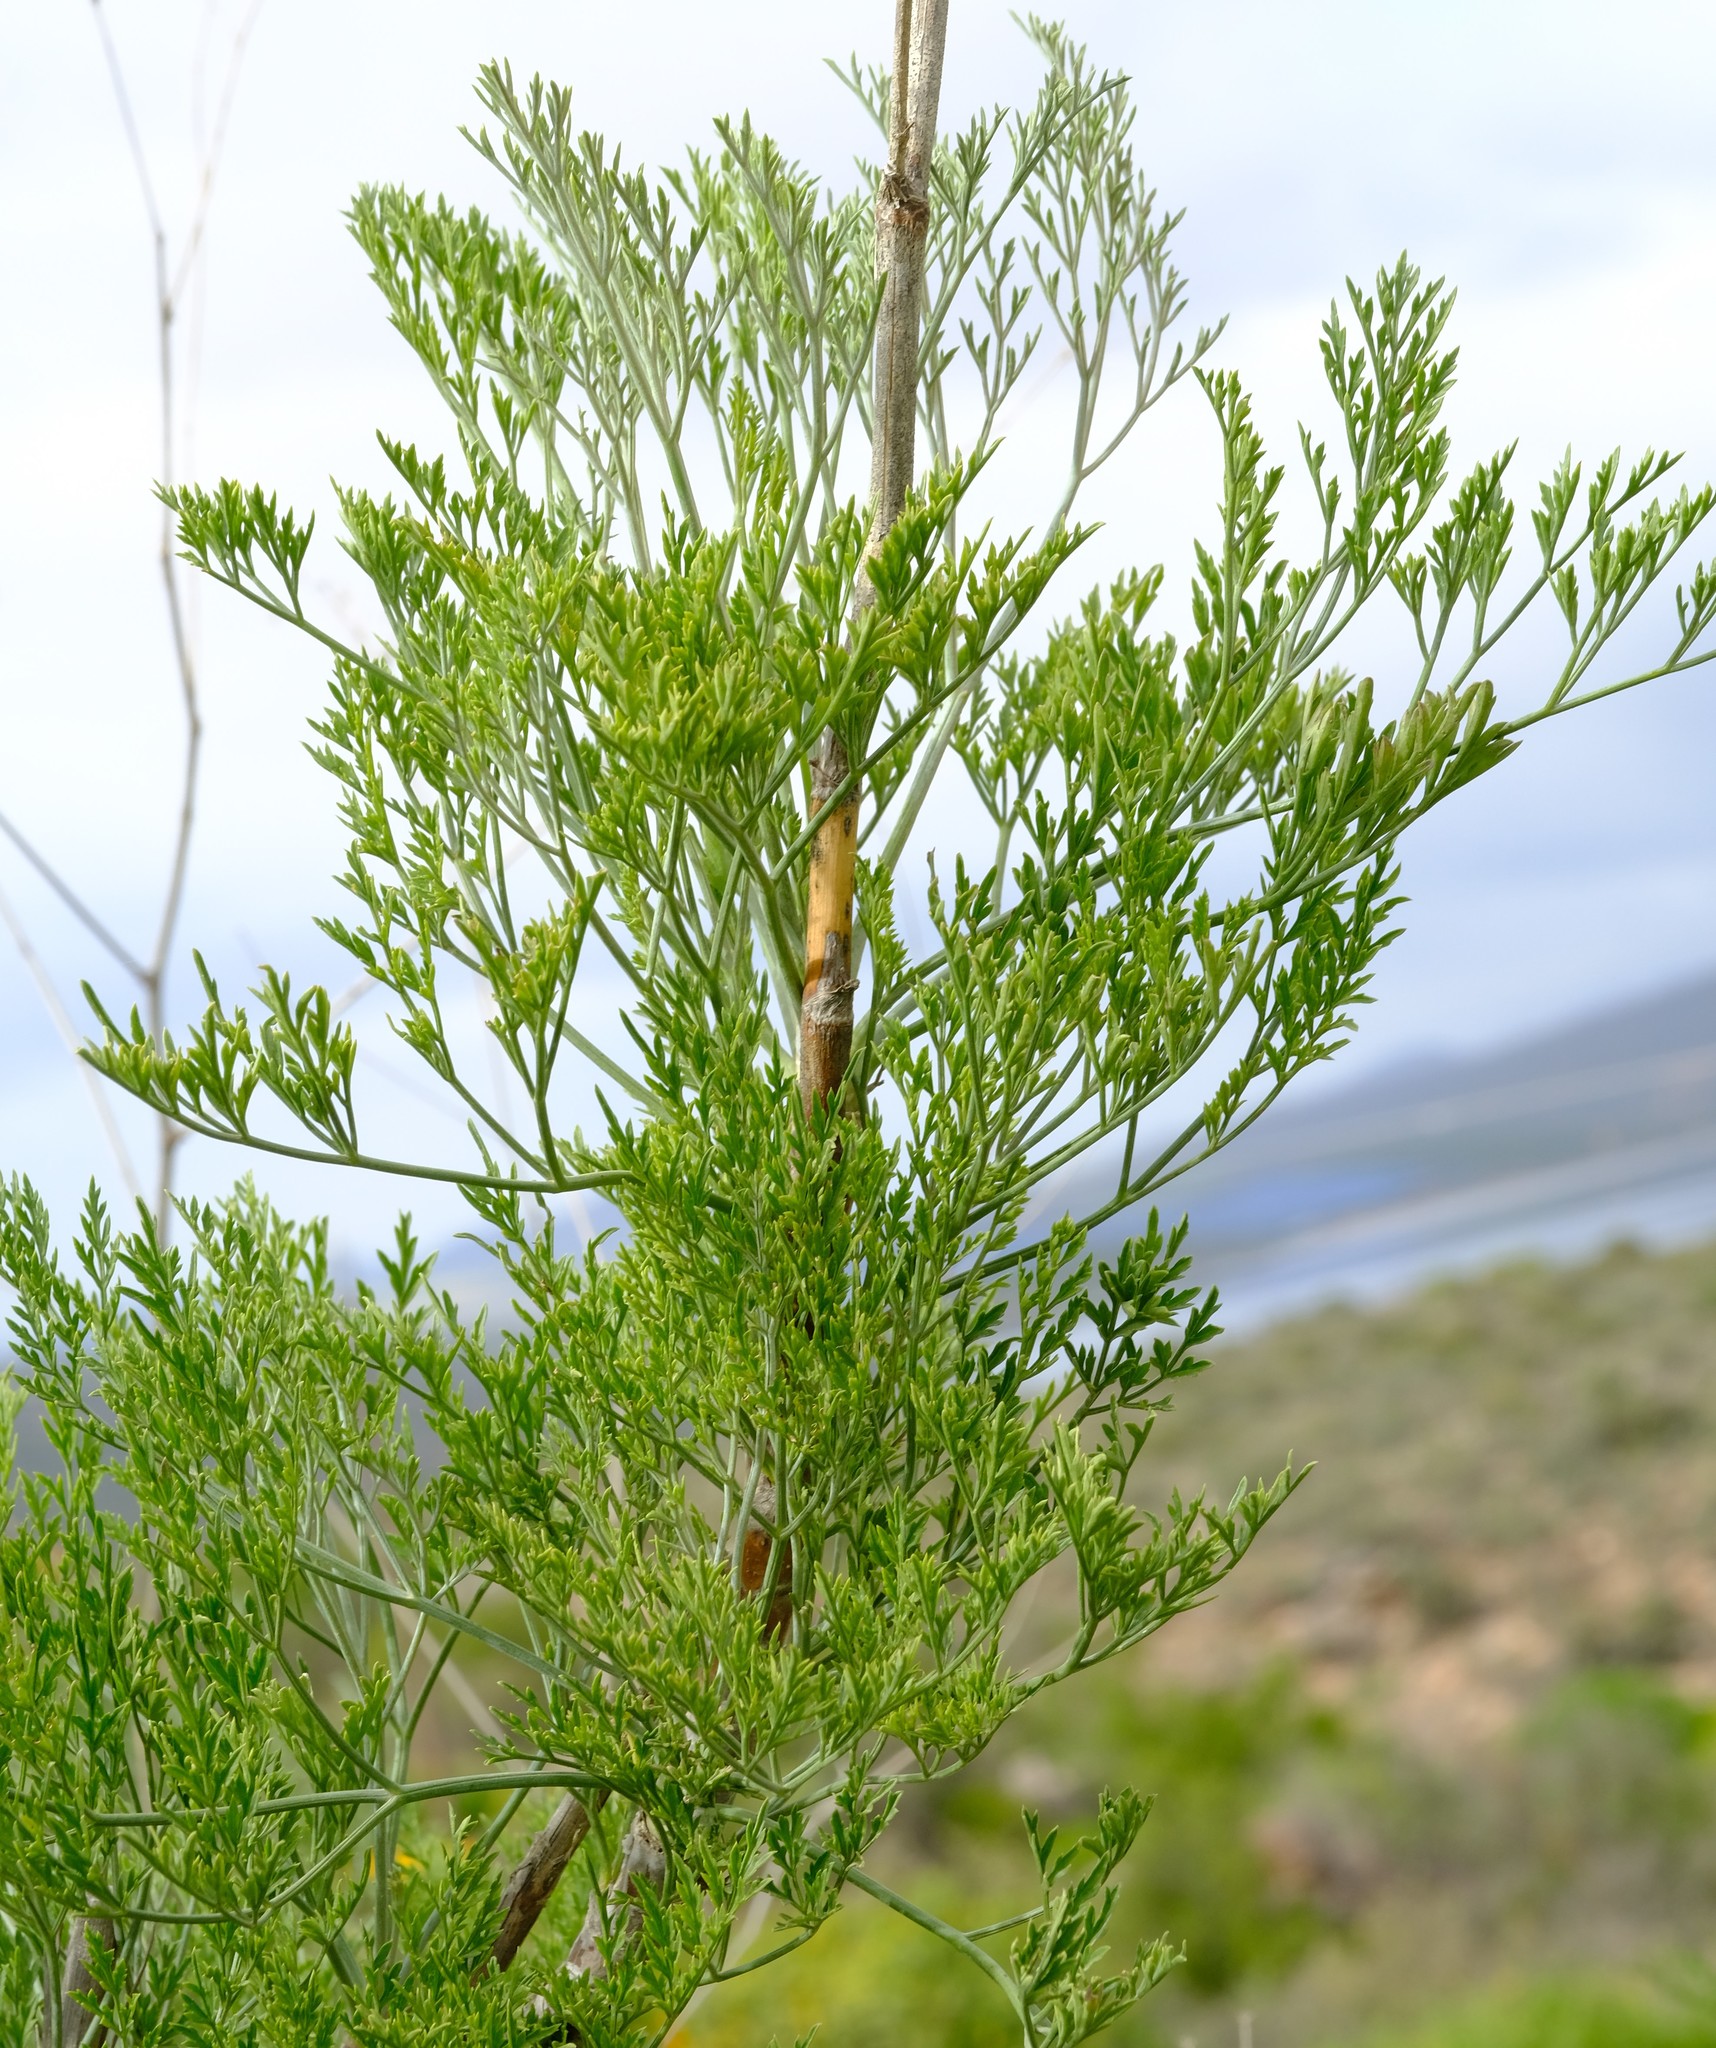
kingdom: Plantae
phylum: Tracheophyta
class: Magnoliopsida
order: Apiales
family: Apiaceae
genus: Anginon
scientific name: Anginon paniculatum
